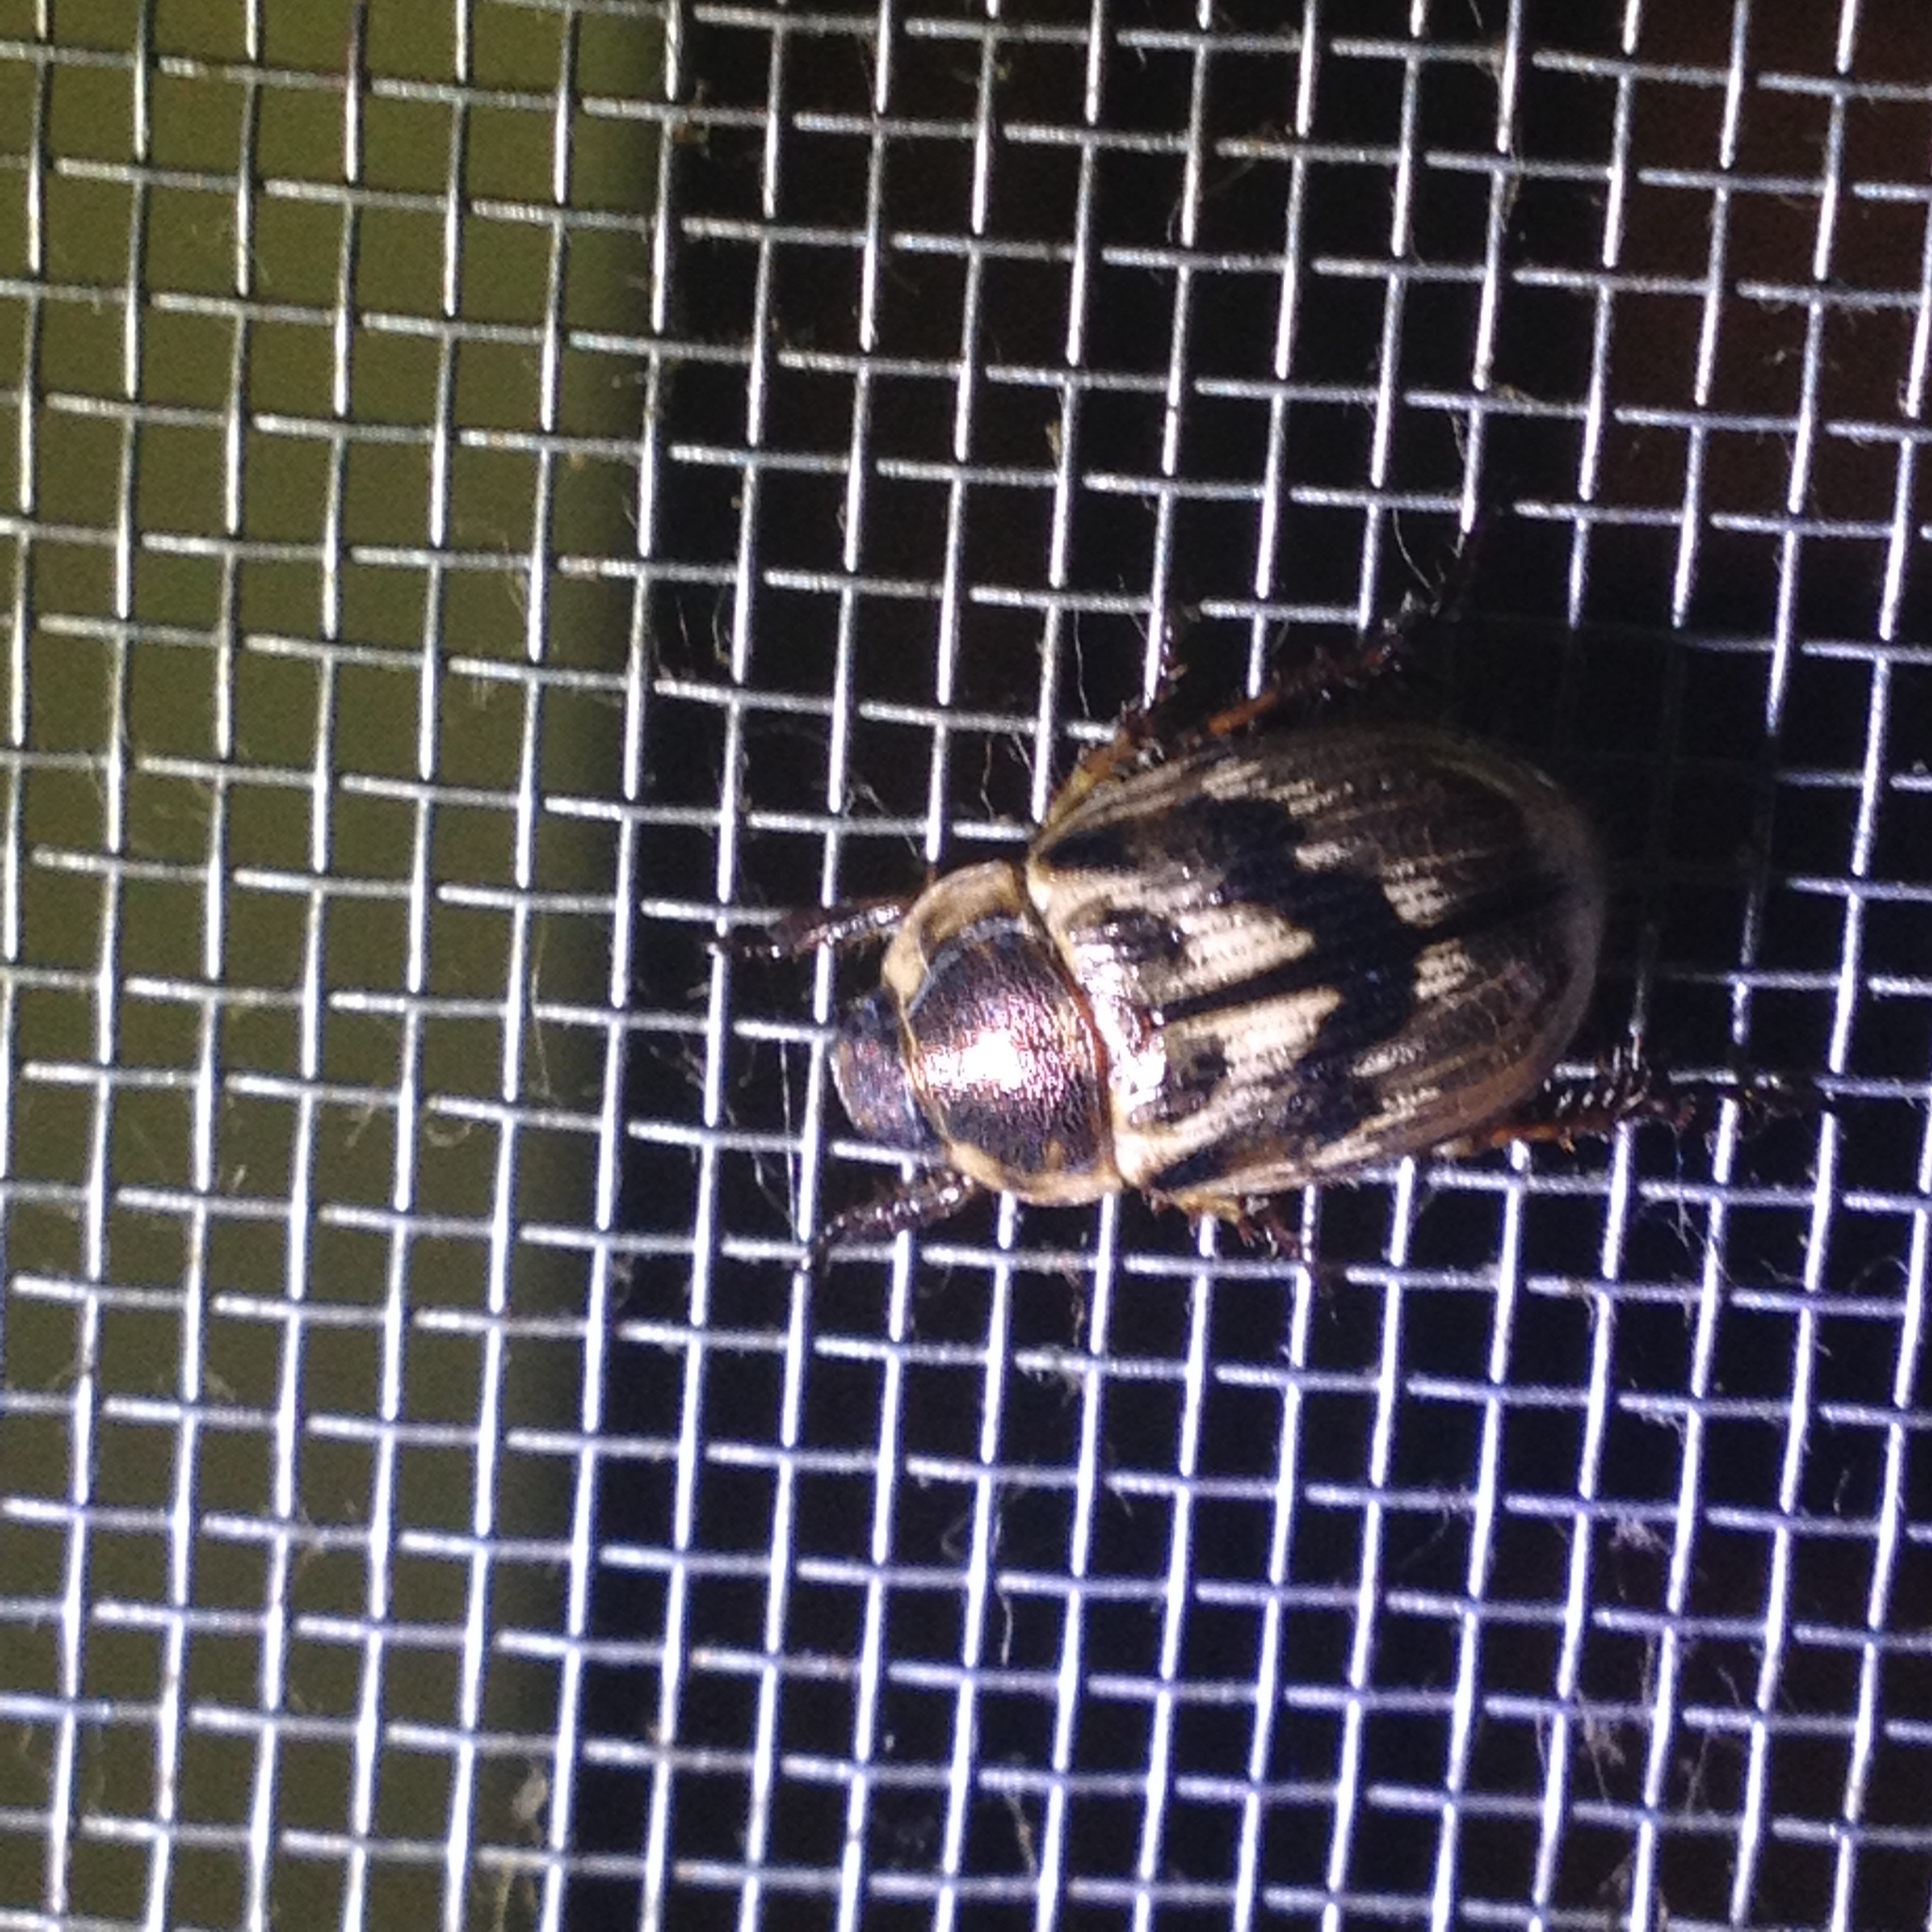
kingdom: Animalia
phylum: Arthropoda
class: Insecta
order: Coleoptera
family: Scarabaeidae
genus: Exomala
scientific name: Exomala orientalis
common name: Oriental beetle
